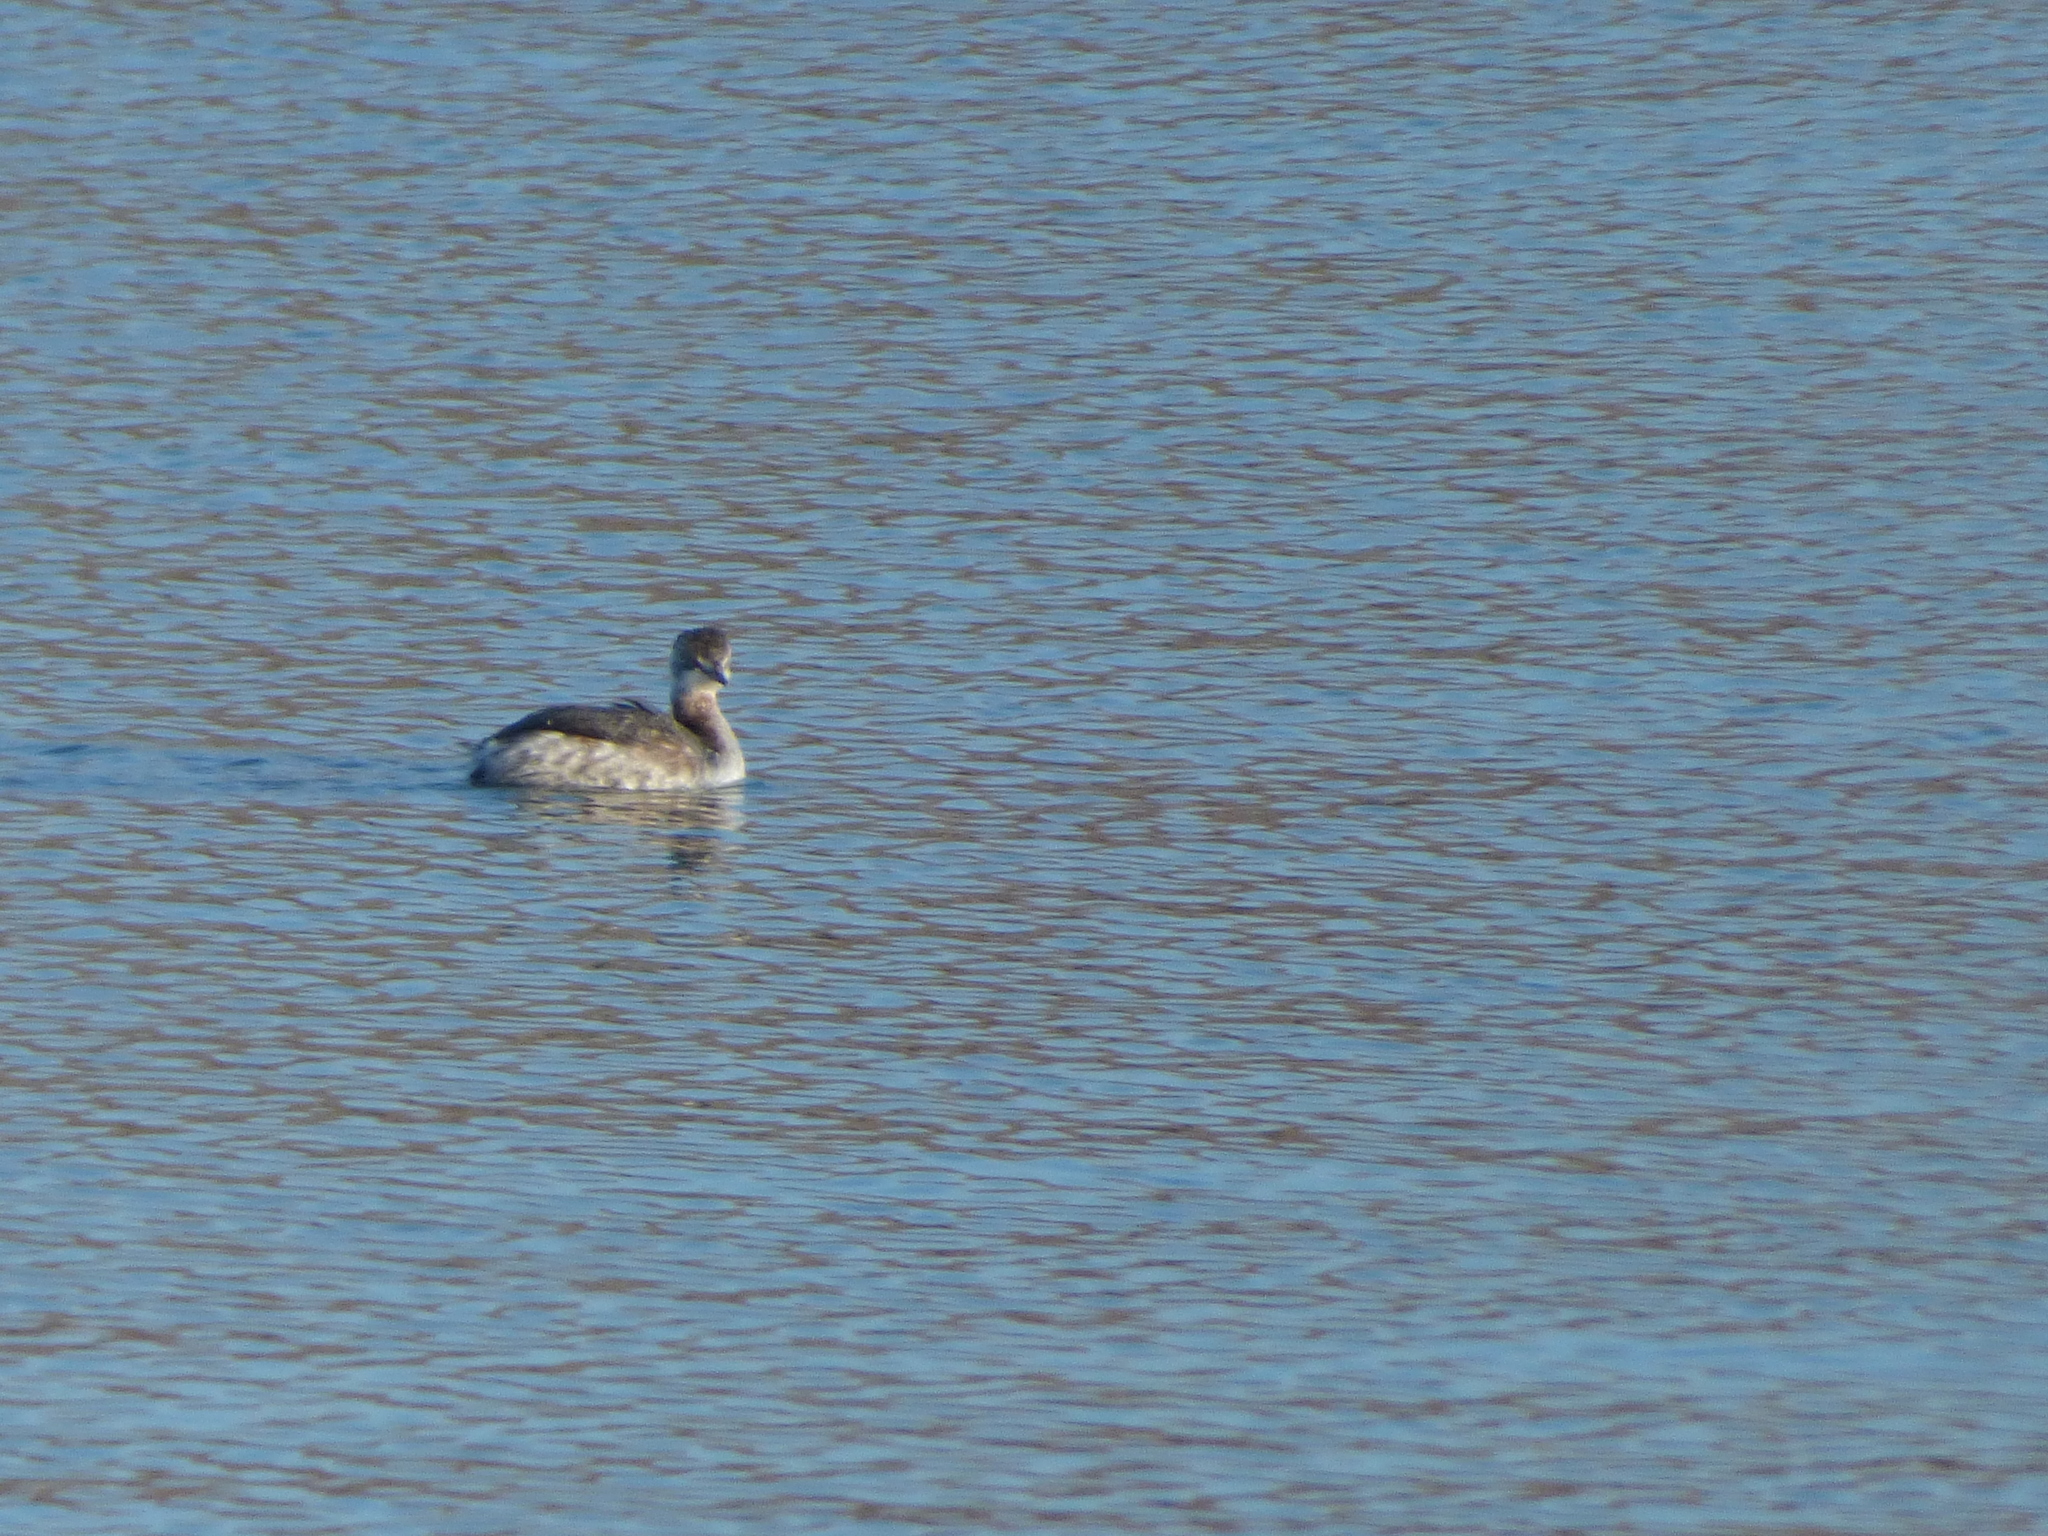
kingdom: Animalia
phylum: Chordata
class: Aves
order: Podicipediformes
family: Podicipedidae
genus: Podiceps
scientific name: Podiceps auritus
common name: Horned grebe
